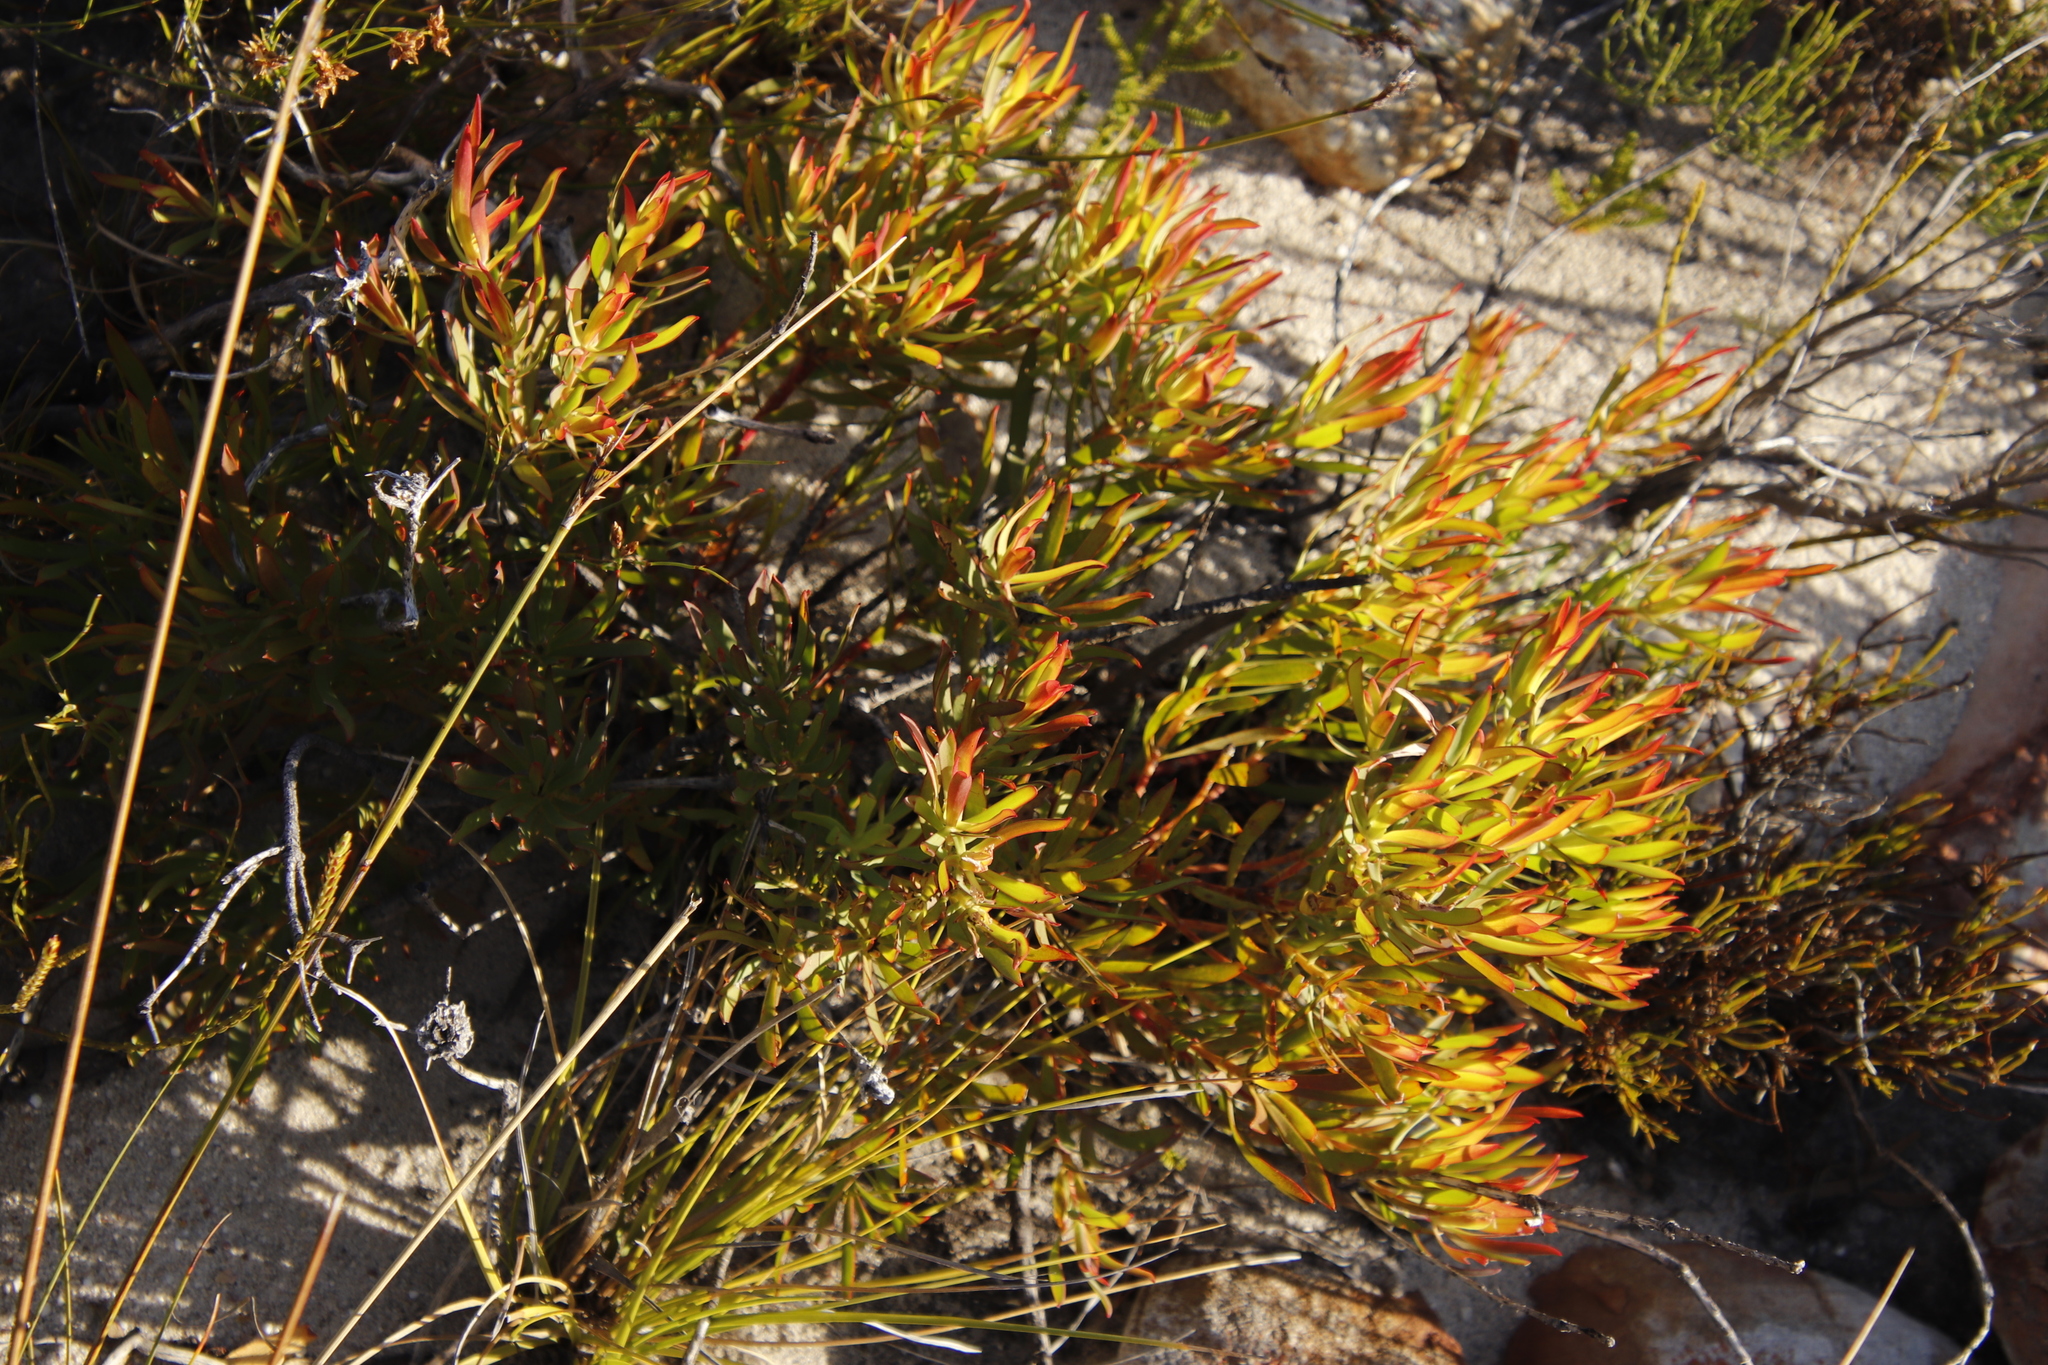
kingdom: Plantae
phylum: Tracheophyta
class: Magnoliopsida
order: Proteales
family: Proteaceae
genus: Leucadendron
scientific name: Leucadendron salignum
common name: Common sunshine conebush
